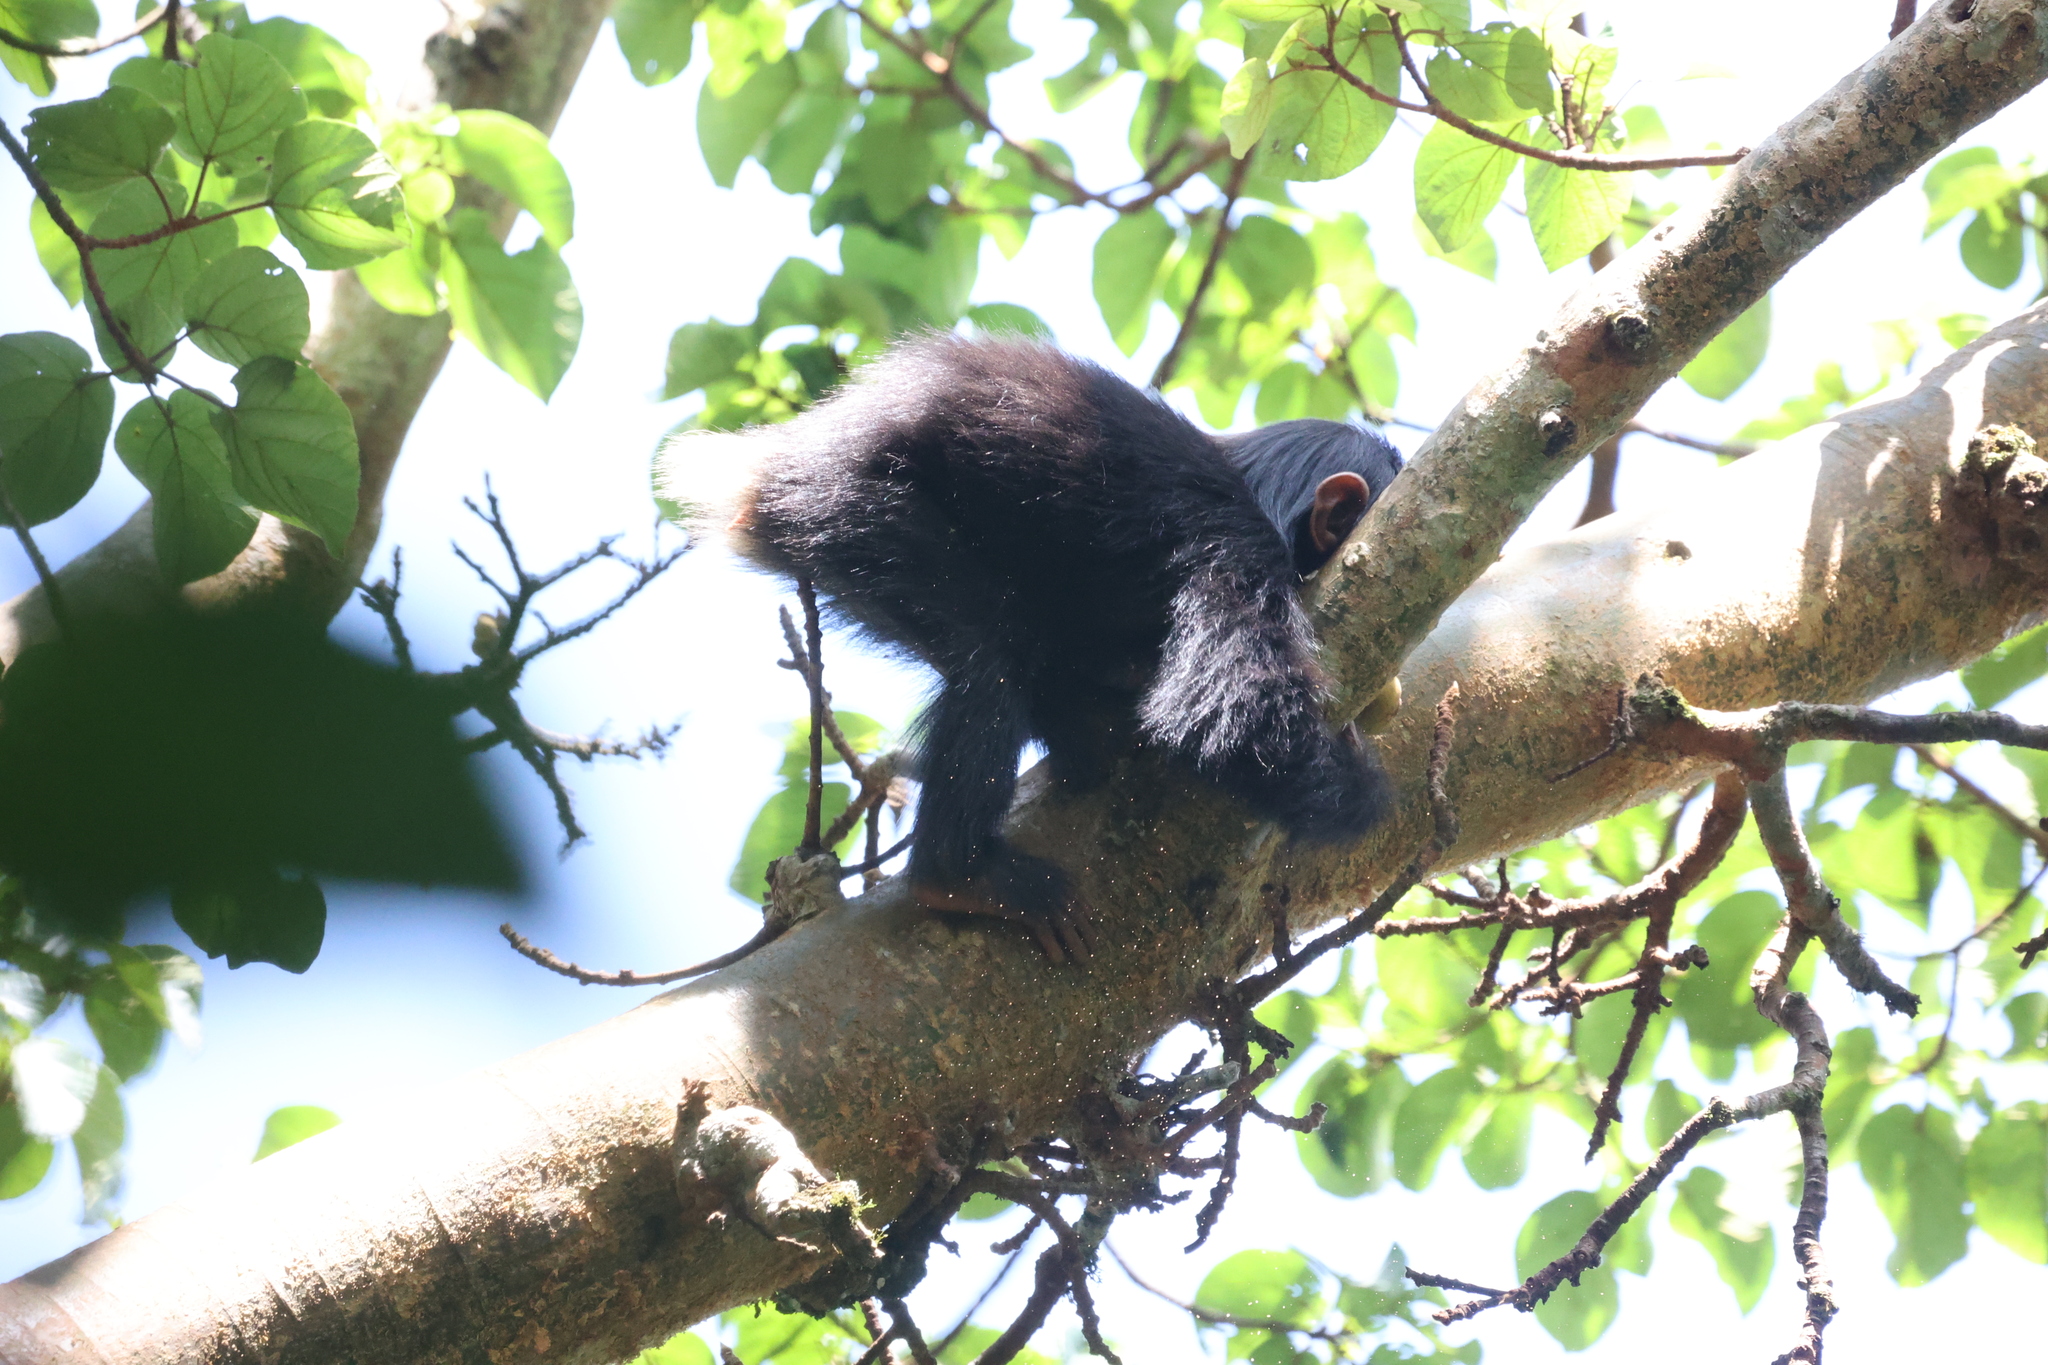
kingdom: Animalia
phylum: Chordata
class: Mammalia
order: Primates
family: Hominidae
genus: Pan
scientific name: Pan troglodytes
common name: Chimpanzee
